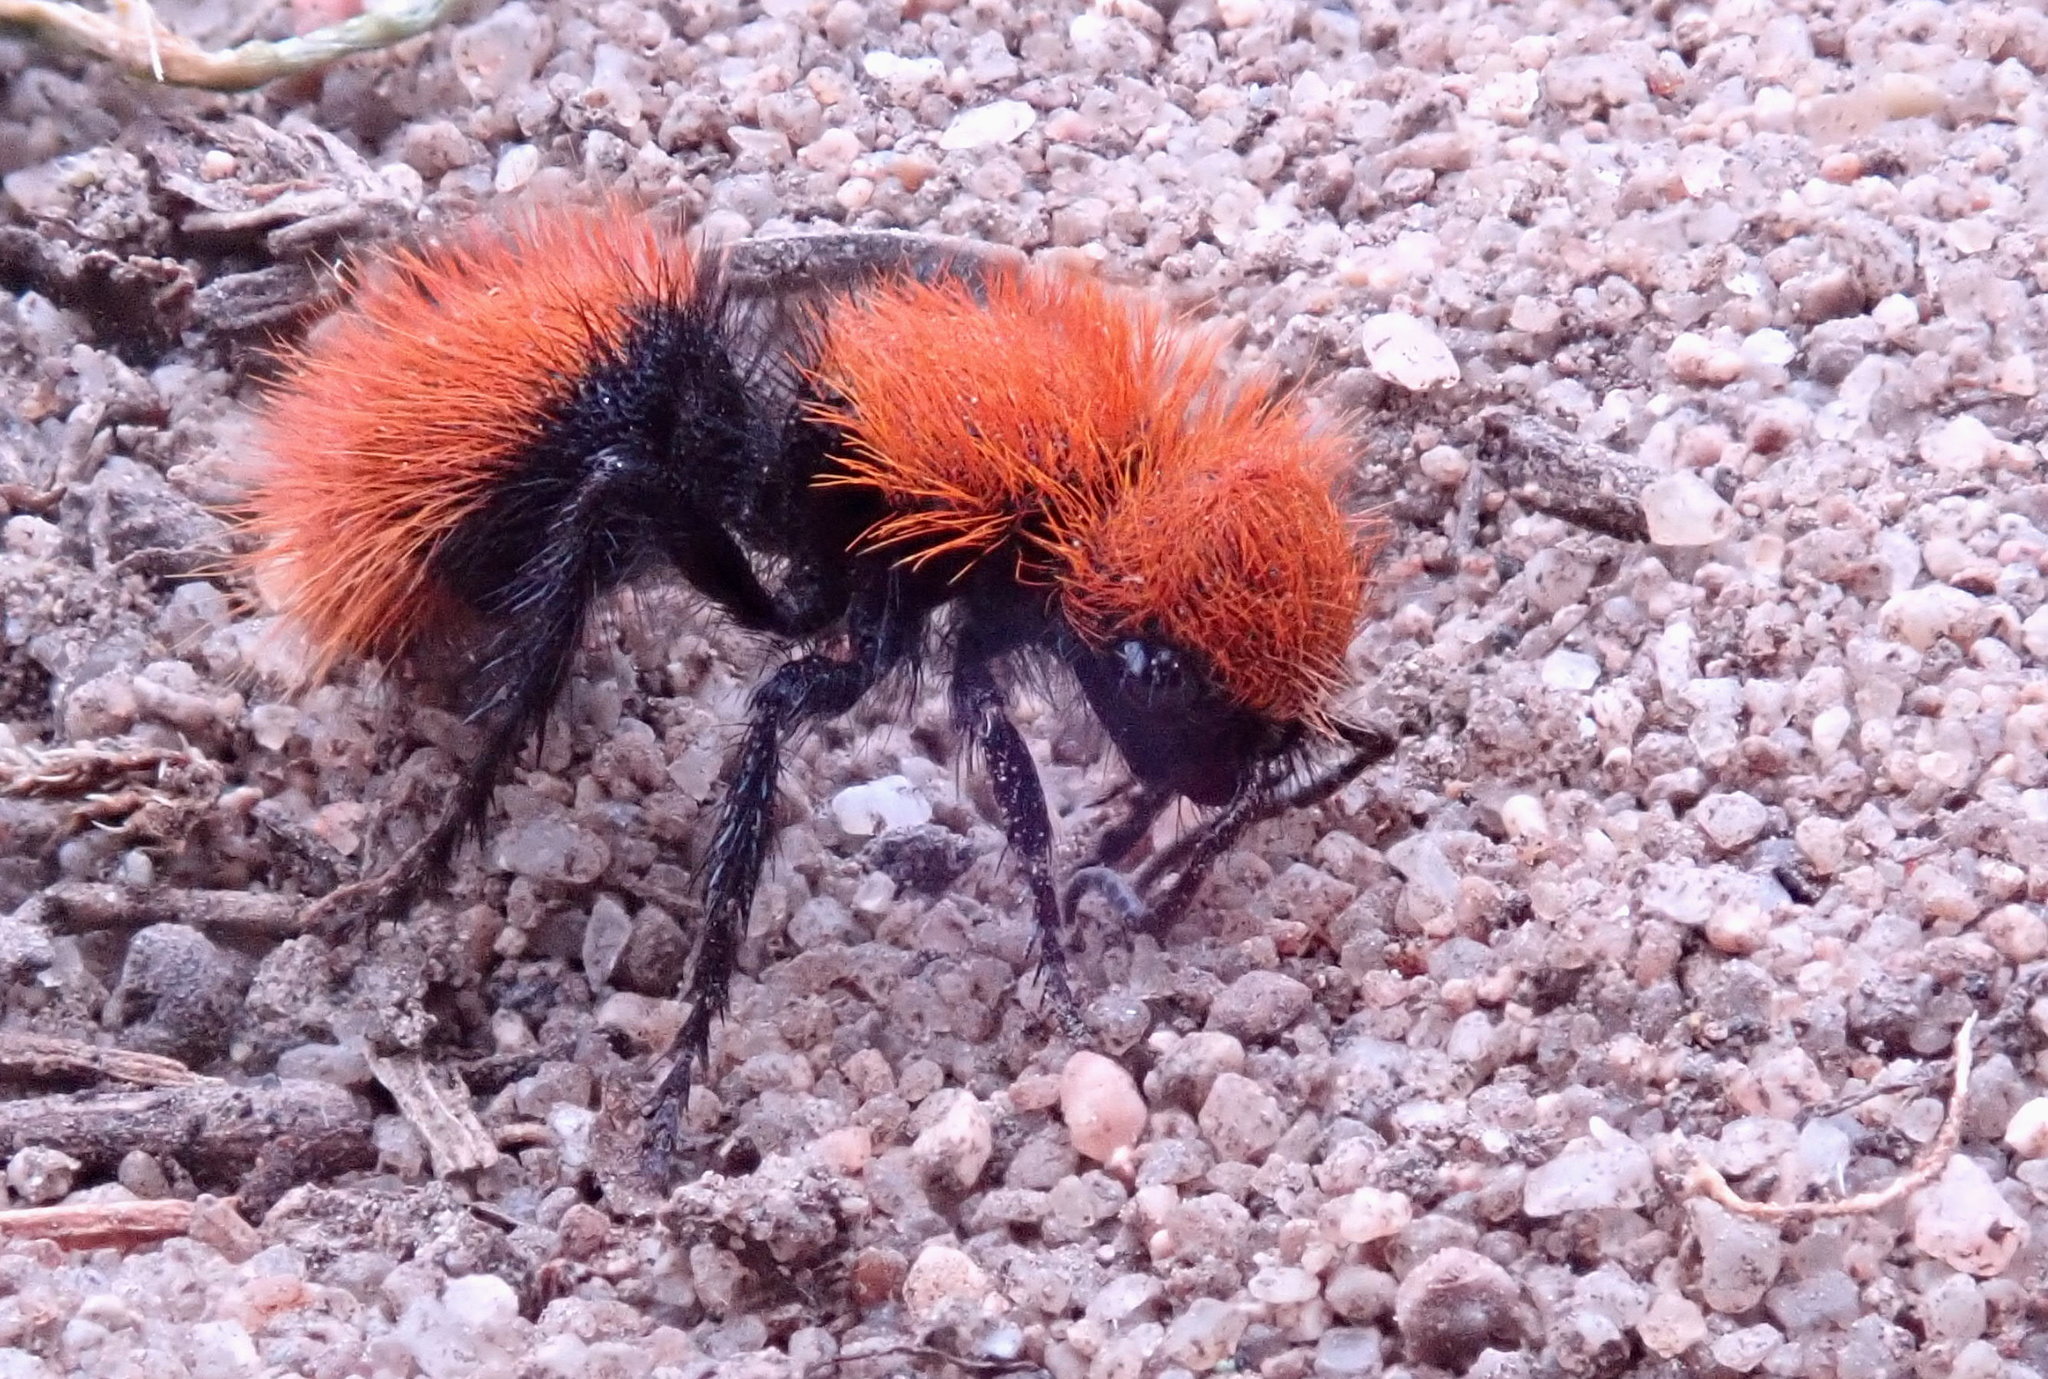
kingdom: Animalia
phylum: Arthropoda
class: Insecta
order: Hymenoptera
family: Mutillidae
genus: Dasymutilla
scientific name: Dasymutilla
